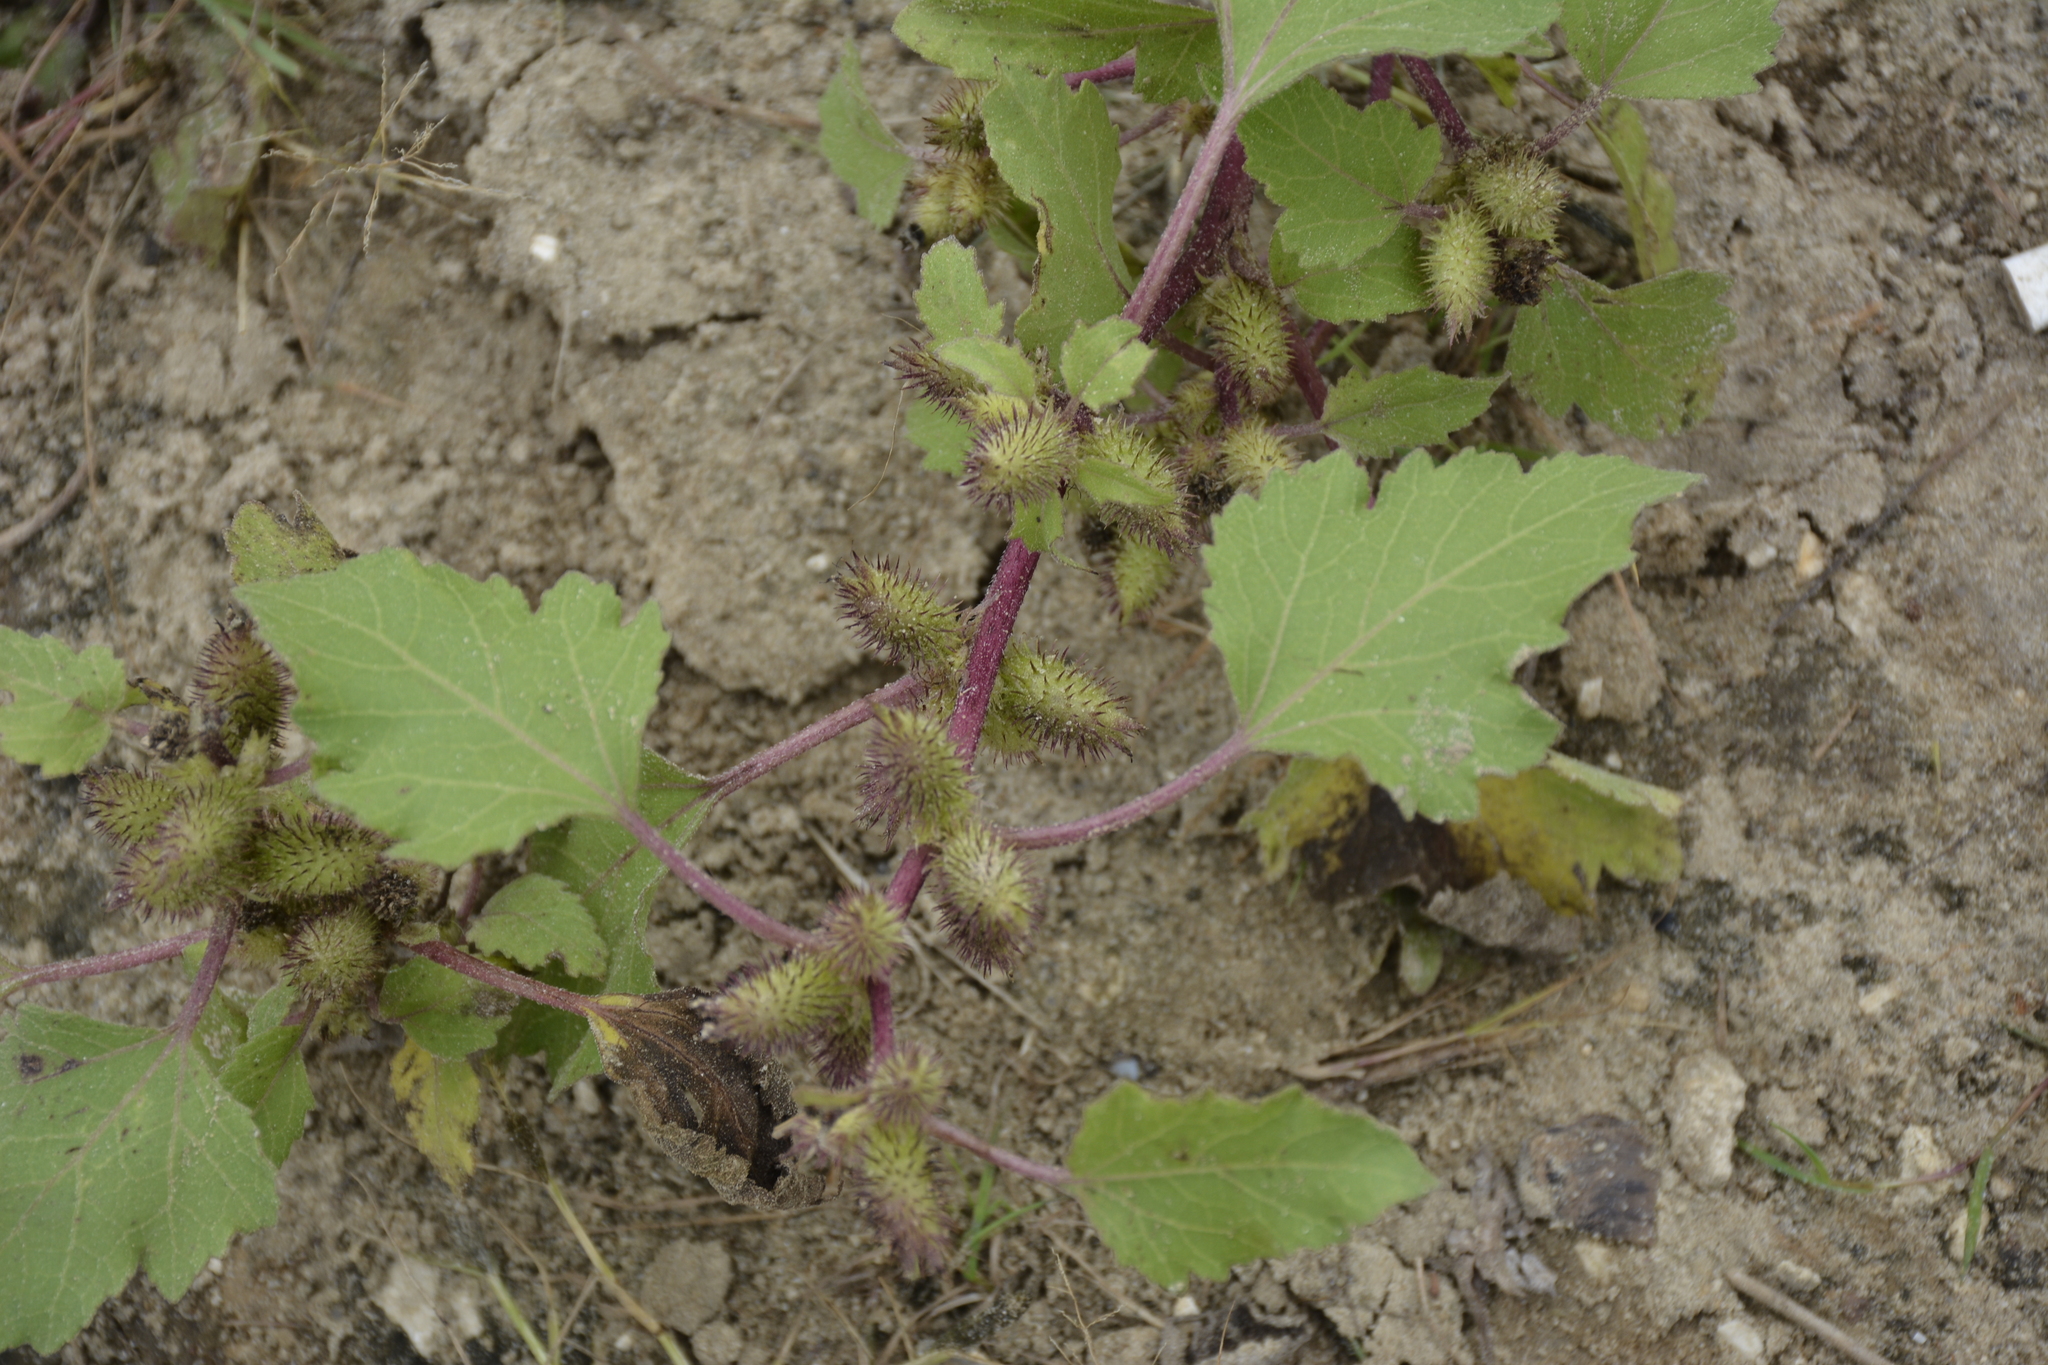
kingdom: Plantae
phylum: Tracheophyta
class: Magnoliopsida
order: Asterales
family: Asteraceae
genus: Xanthium
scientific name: Xanthium orientale
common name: Californian burr
